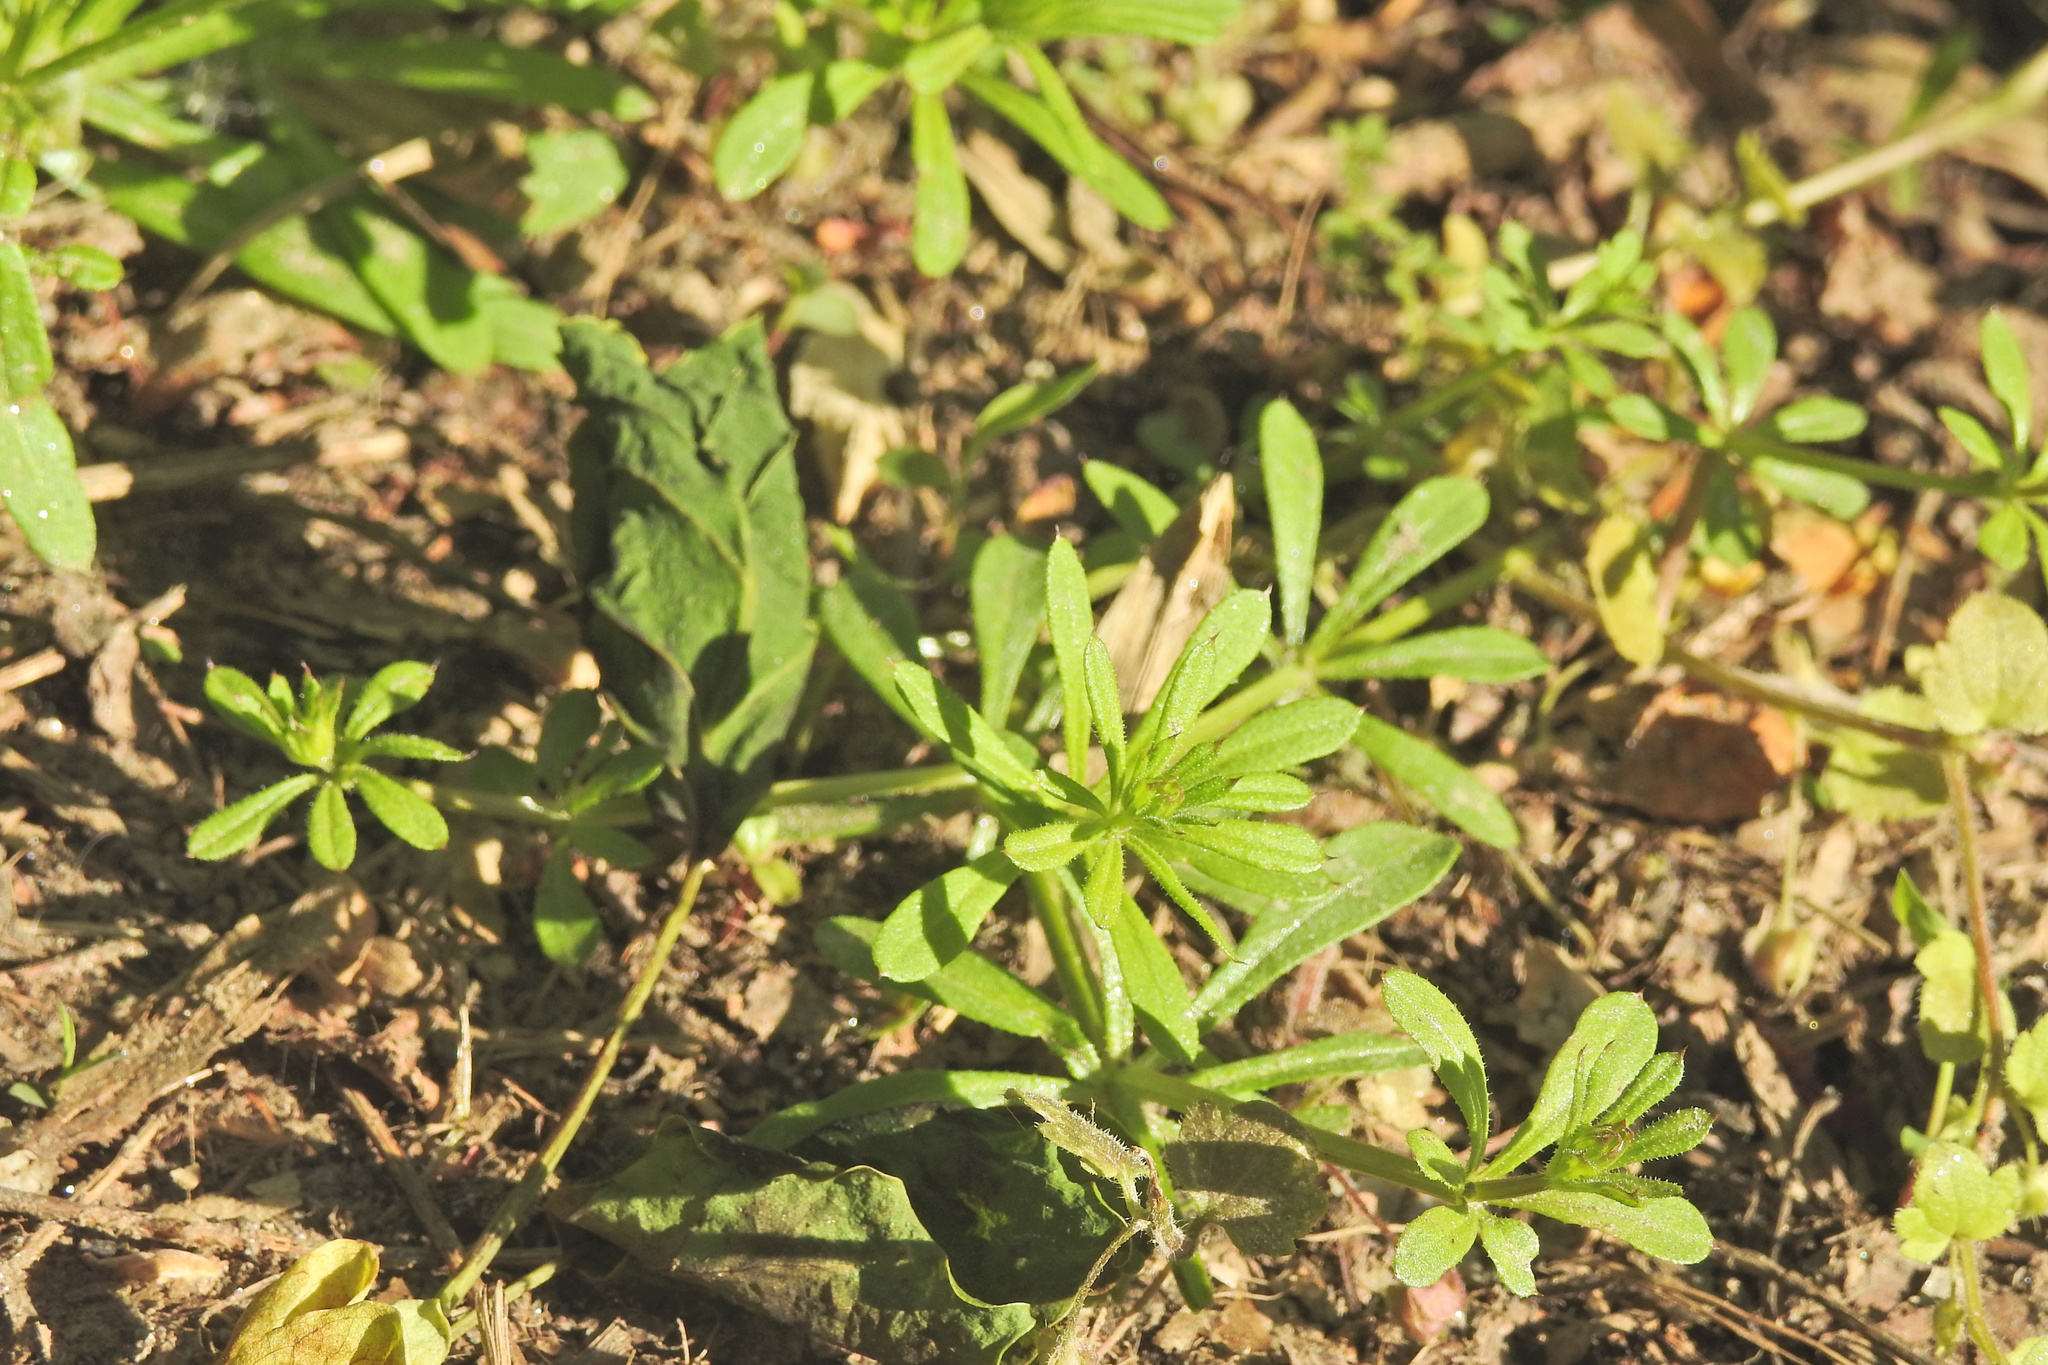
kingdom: Plantae
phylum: Tracheophyta
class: Magnoliopsida
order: Gentianales
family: Rubiaceae
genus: Galium
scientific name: Galium aparine
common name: Cleavers
